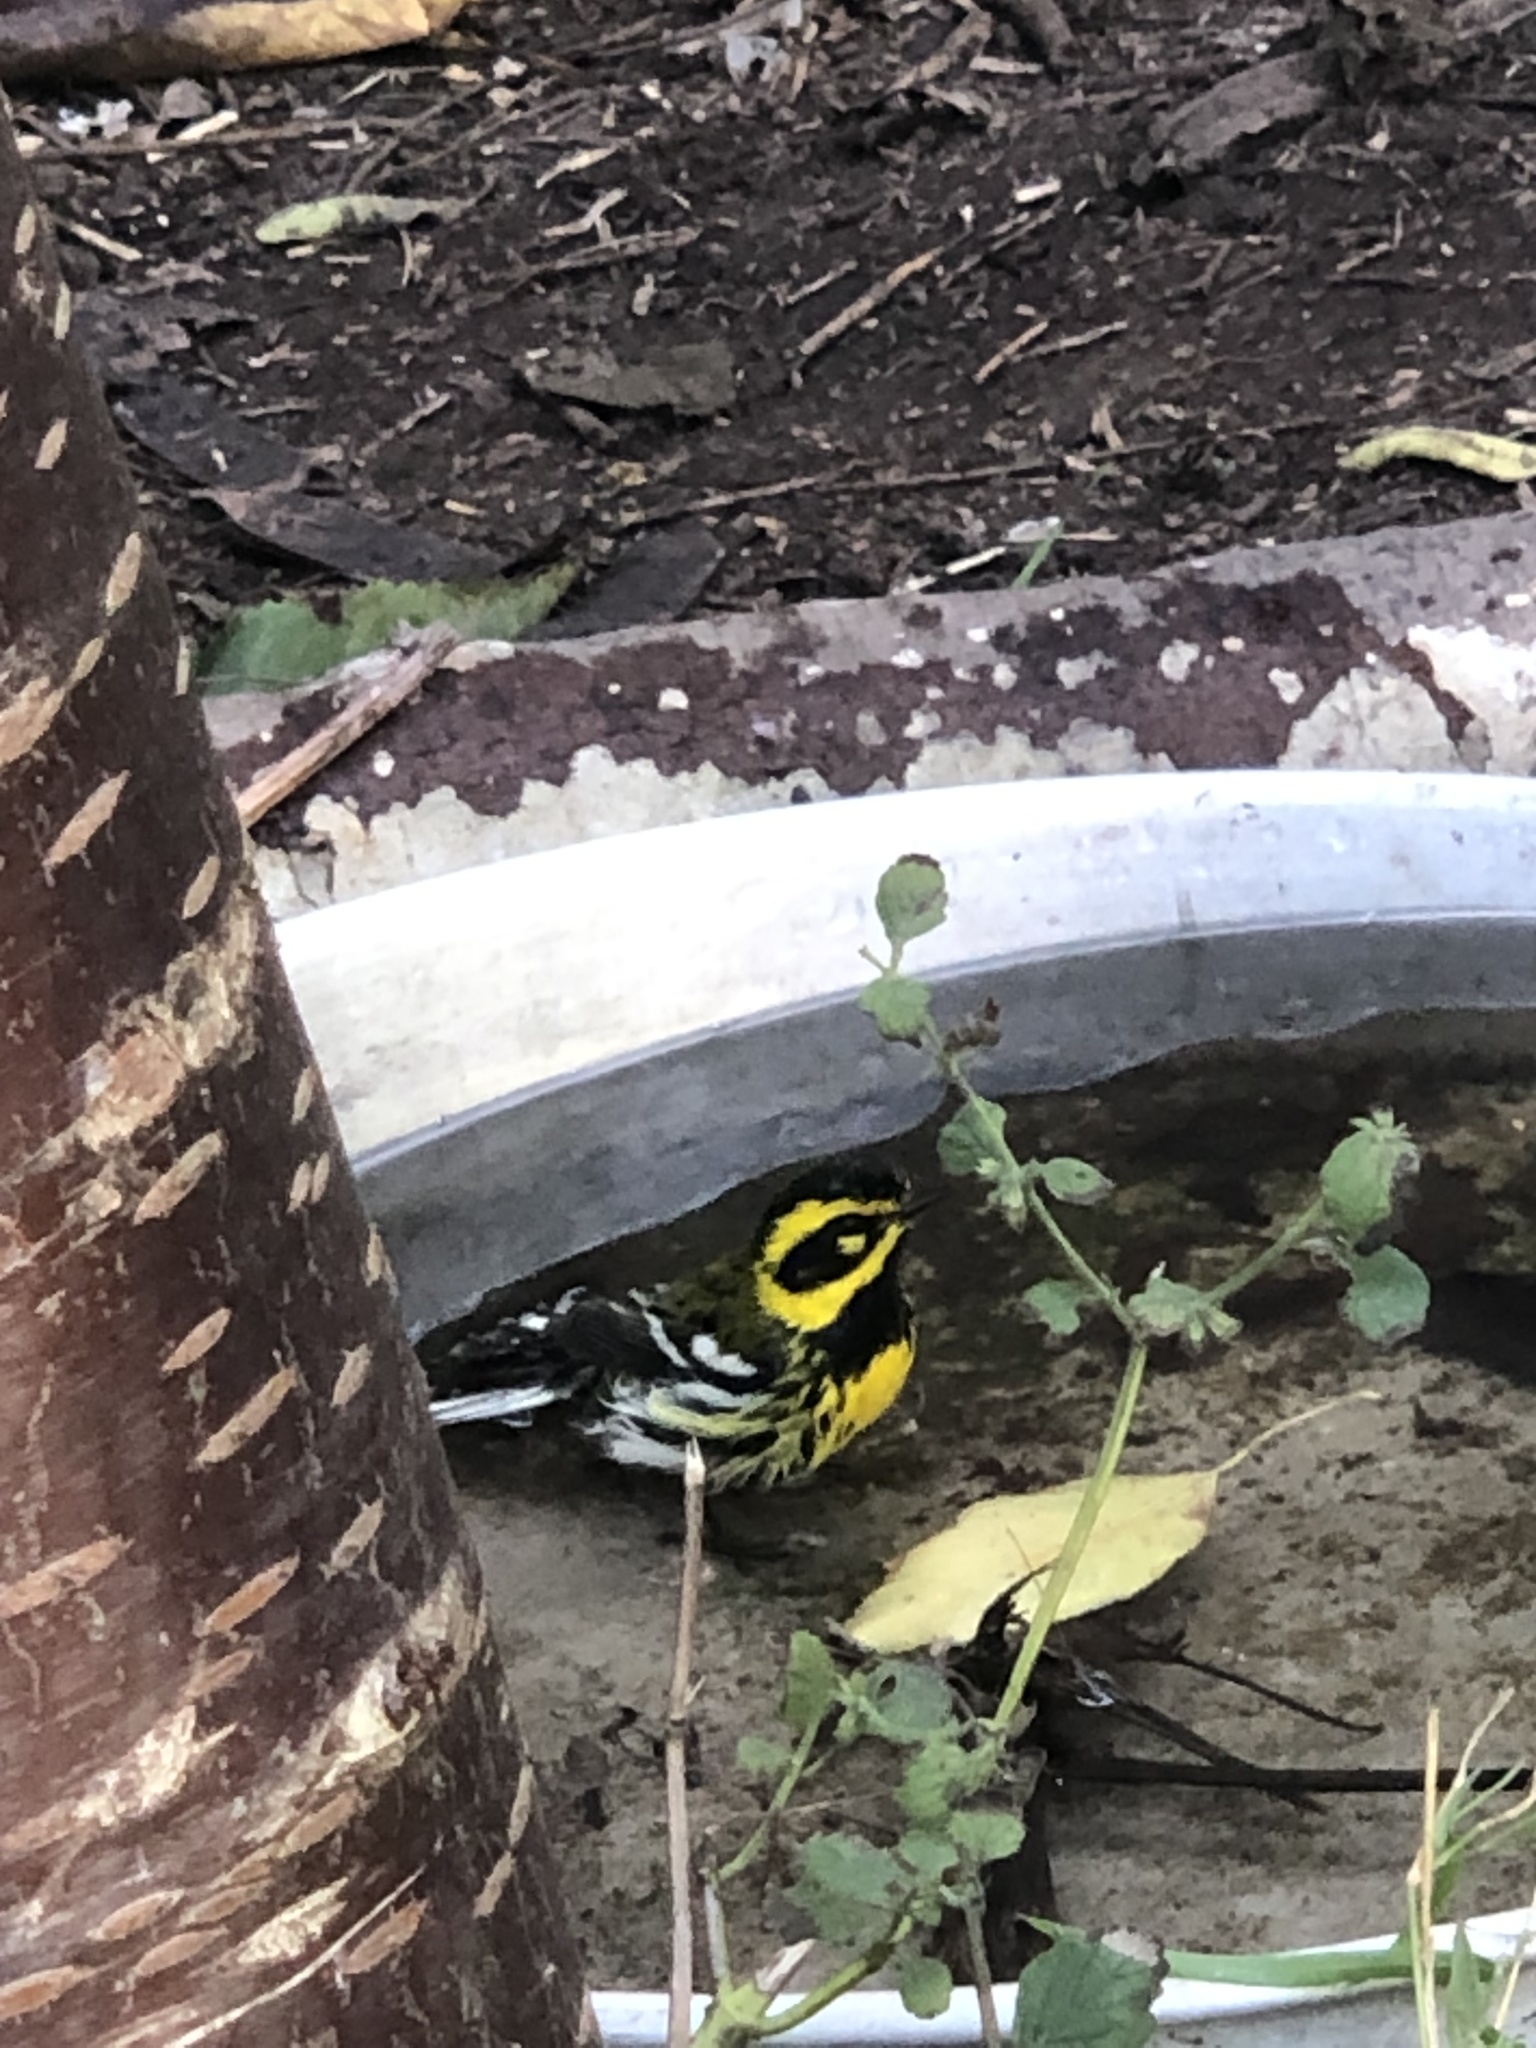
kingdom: Animalia
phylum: Chordata
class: Aves
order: Passeriformes
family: Parulidae
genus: Setophaga
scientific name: Setophaga townsendi
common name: Townsend's warbler
